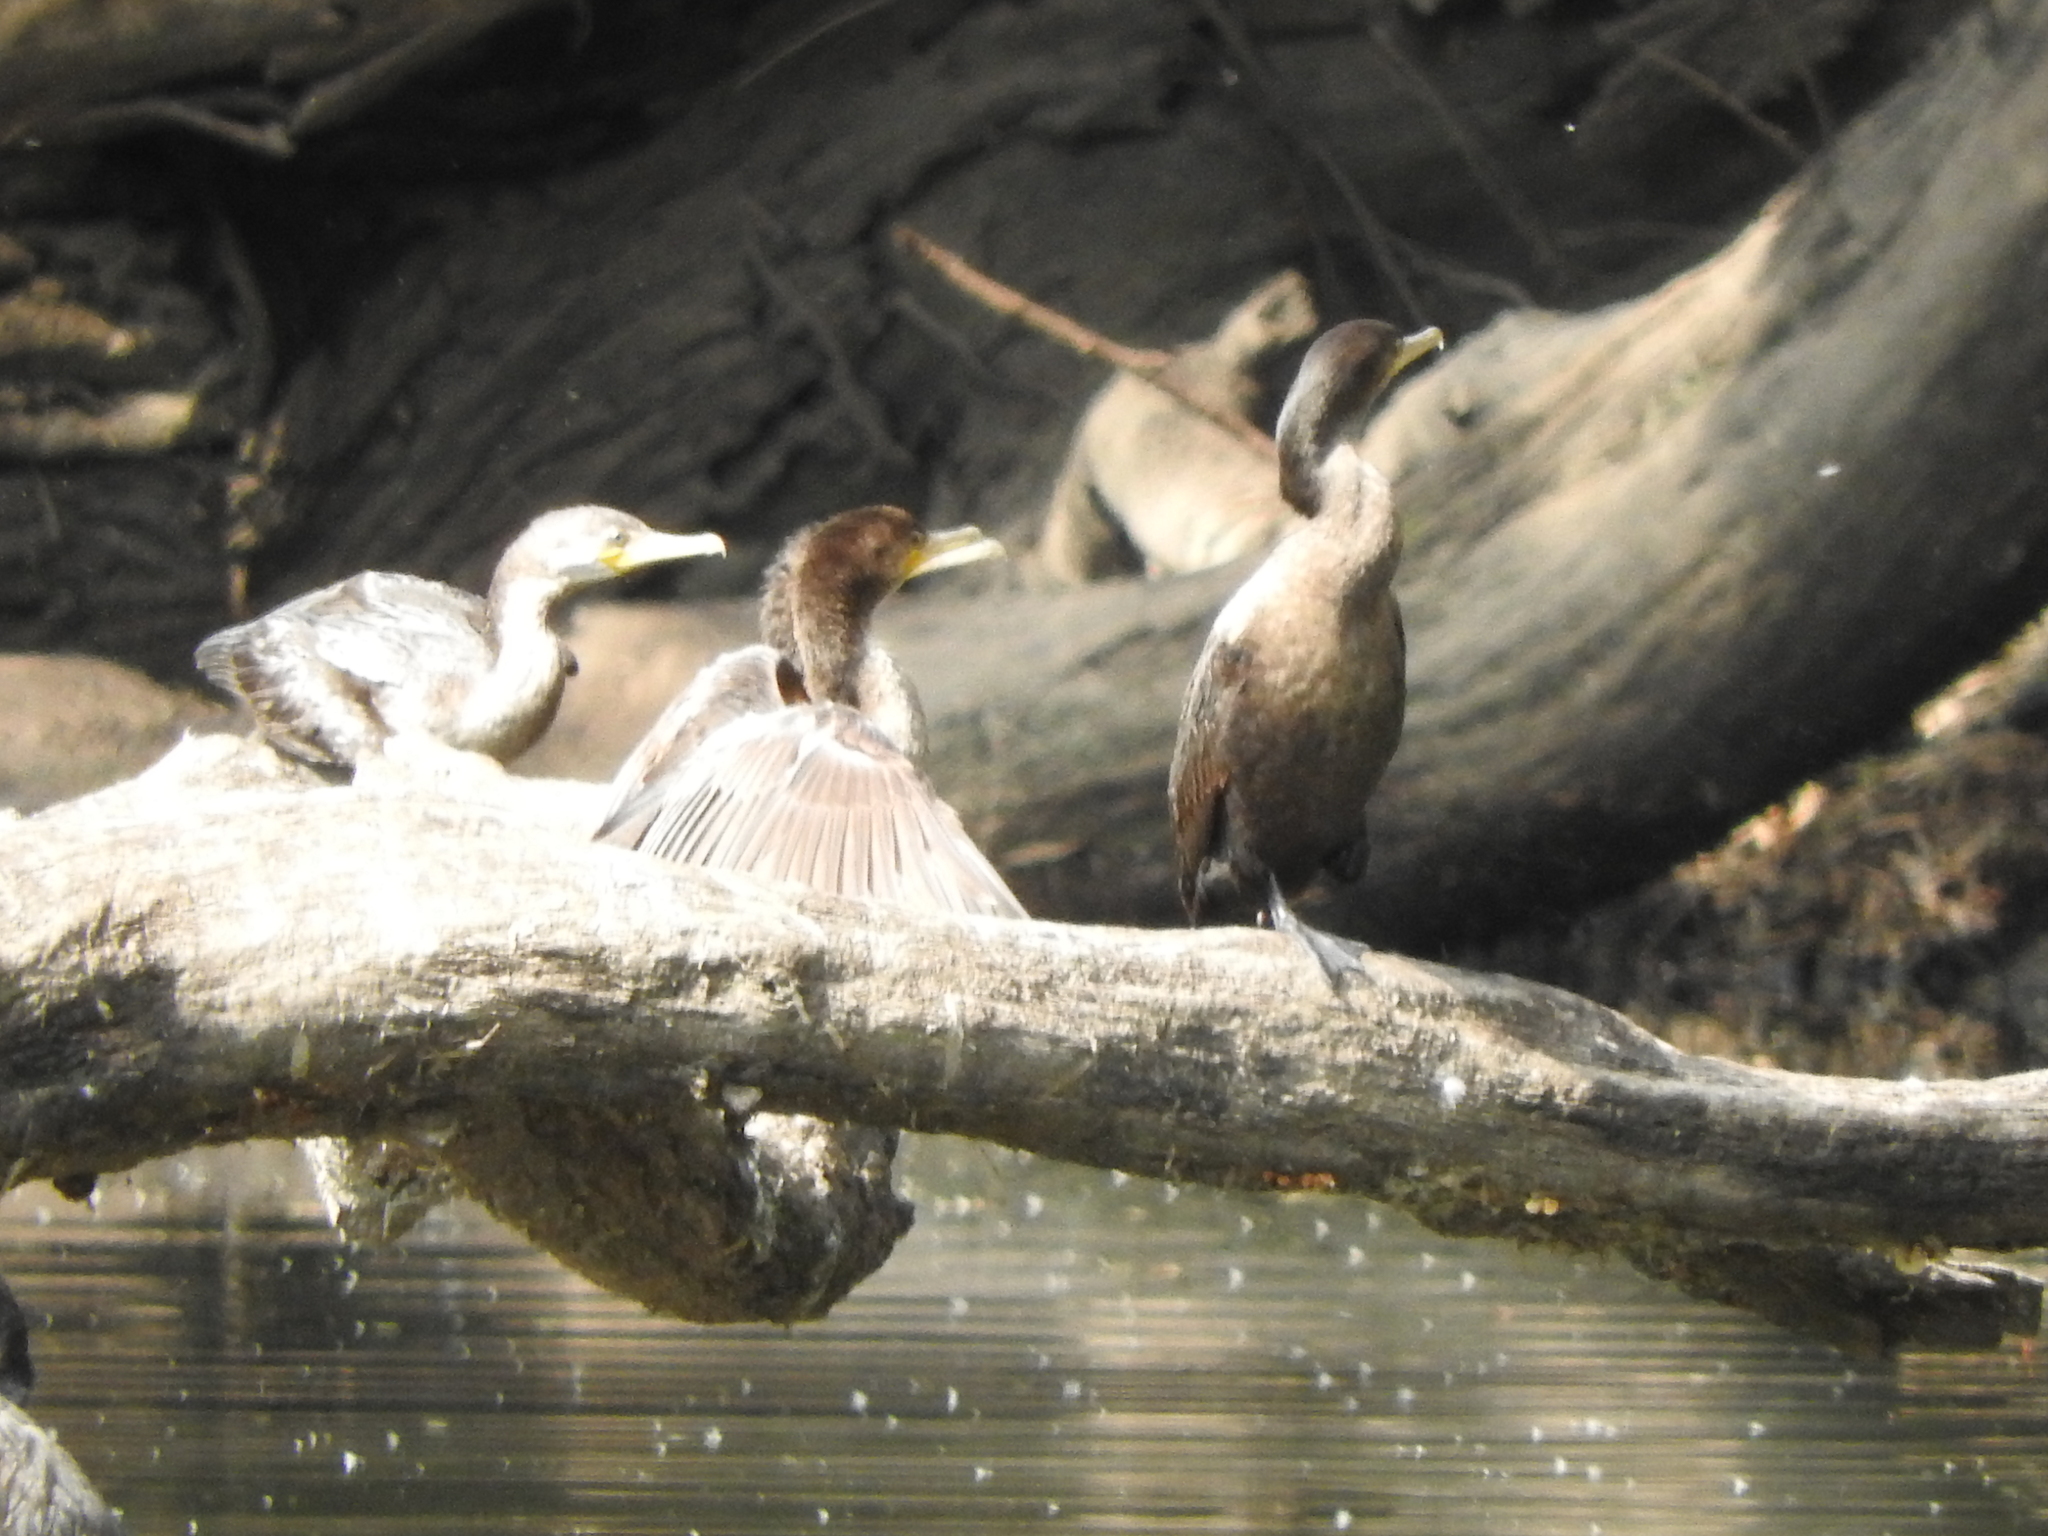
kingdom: Animalia
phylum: Chordata
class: Aves
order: Suliformes
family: Phalacrocoracidae
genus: Phalacrocorax
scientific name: Phalacrocorax brasilianus
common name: Neotropic cormorant
